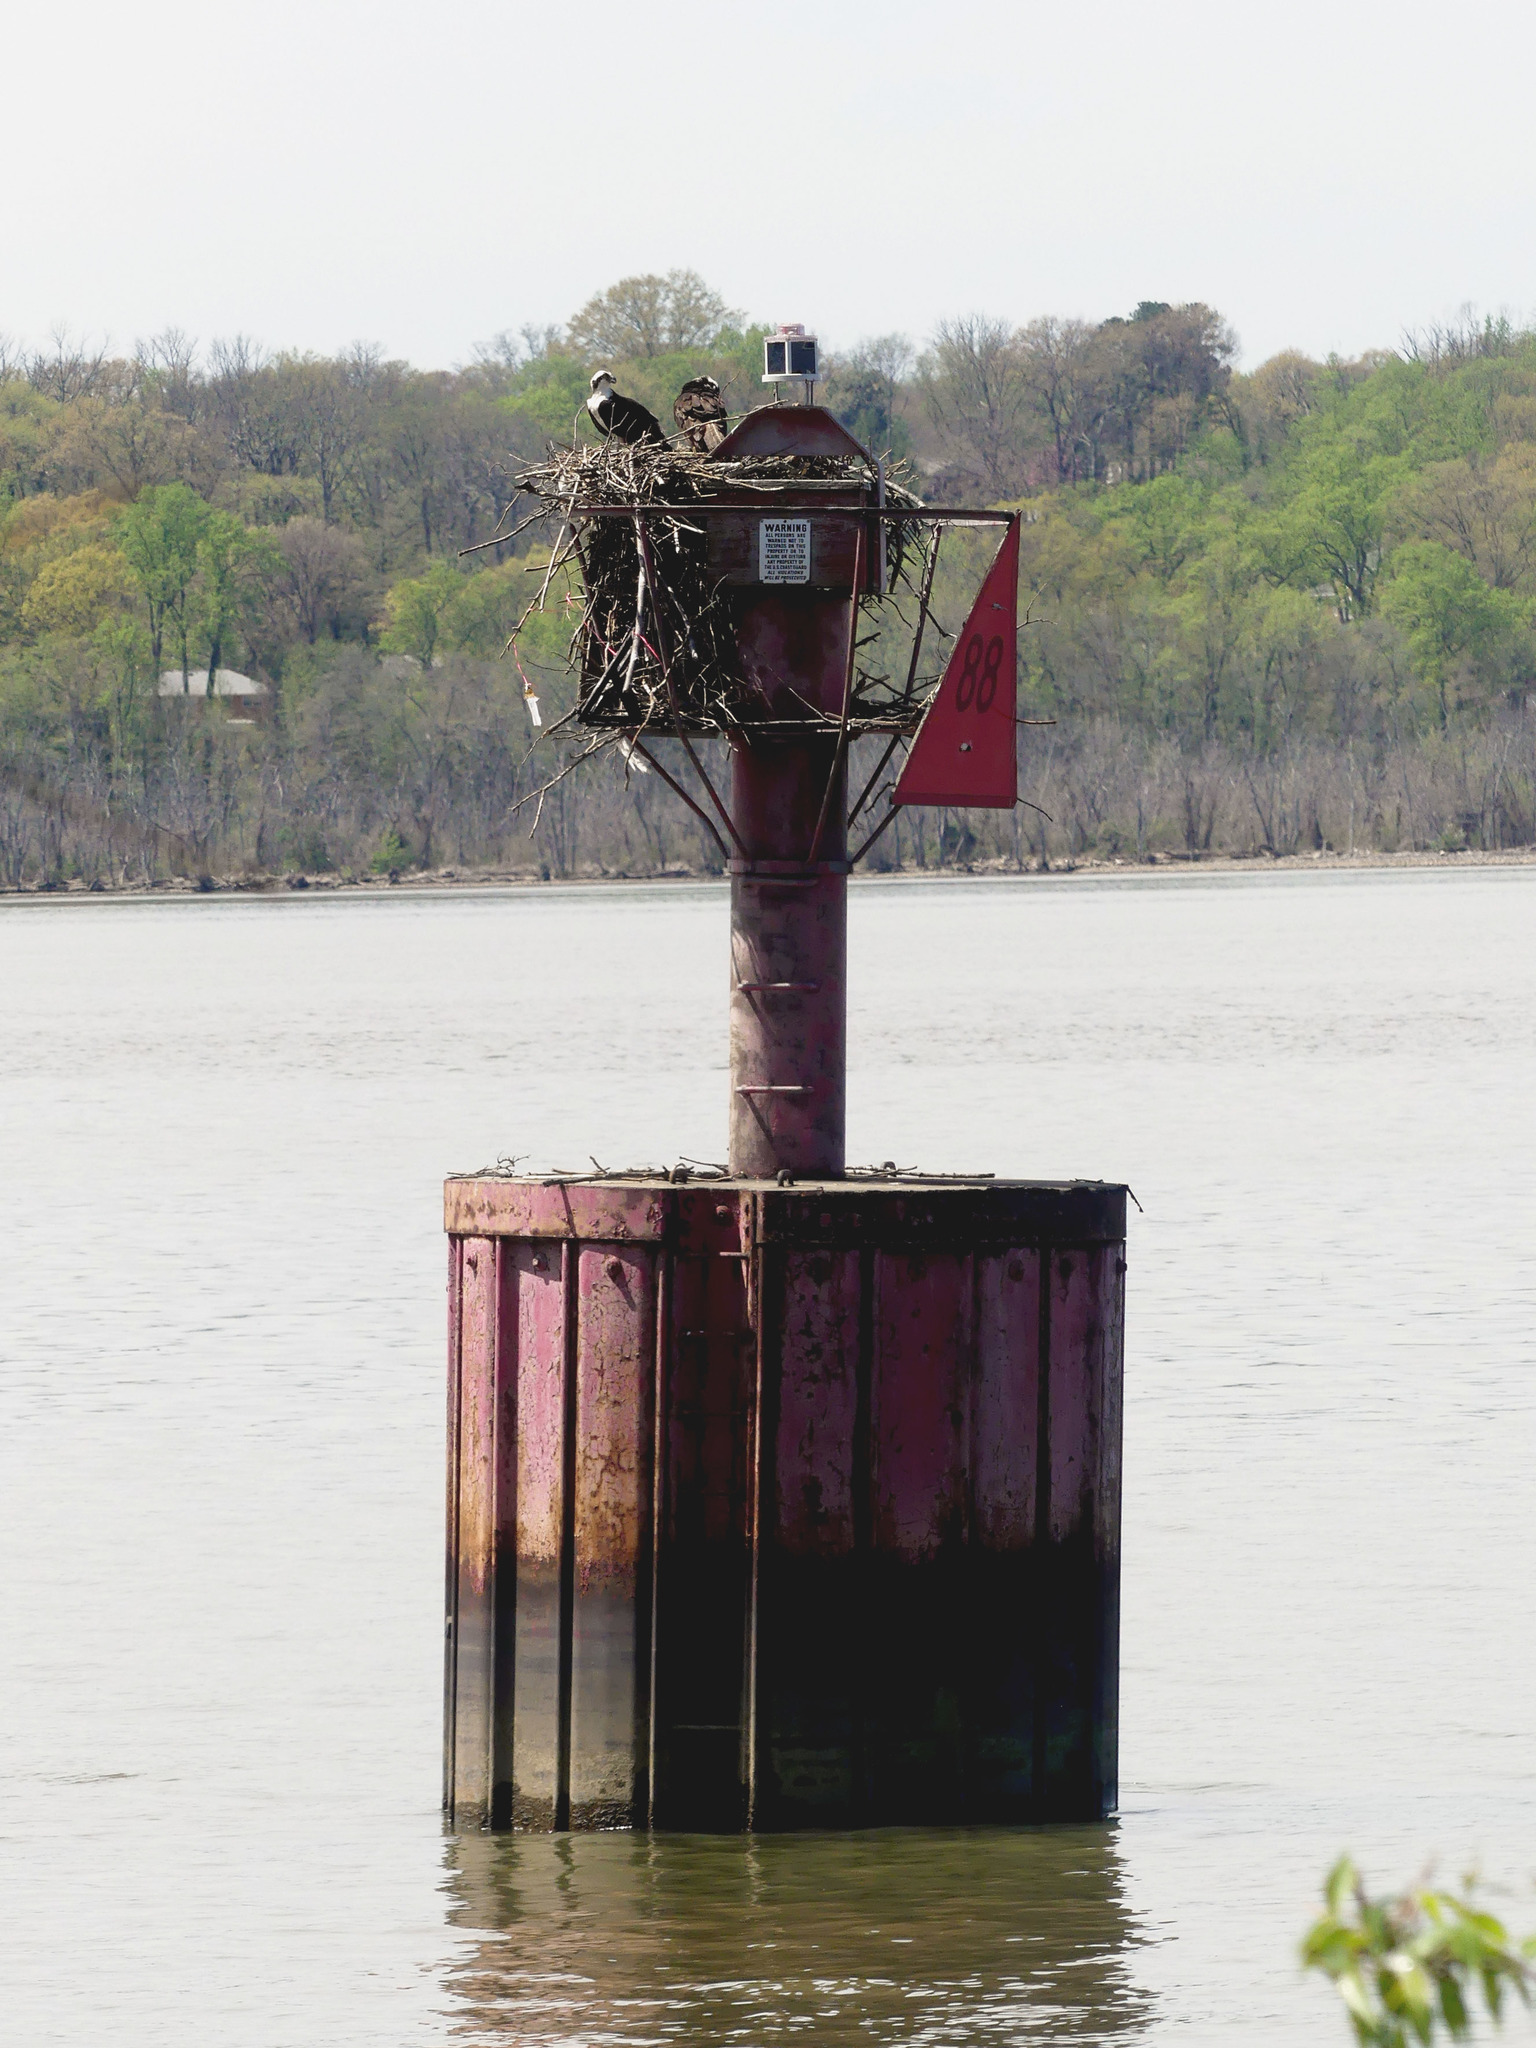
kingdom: Animalia
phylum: Chordata
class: Aves
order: Accipitriformes
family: Pandionidae
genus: Pandion
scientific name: Pandion haliaetus
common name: Osprey
